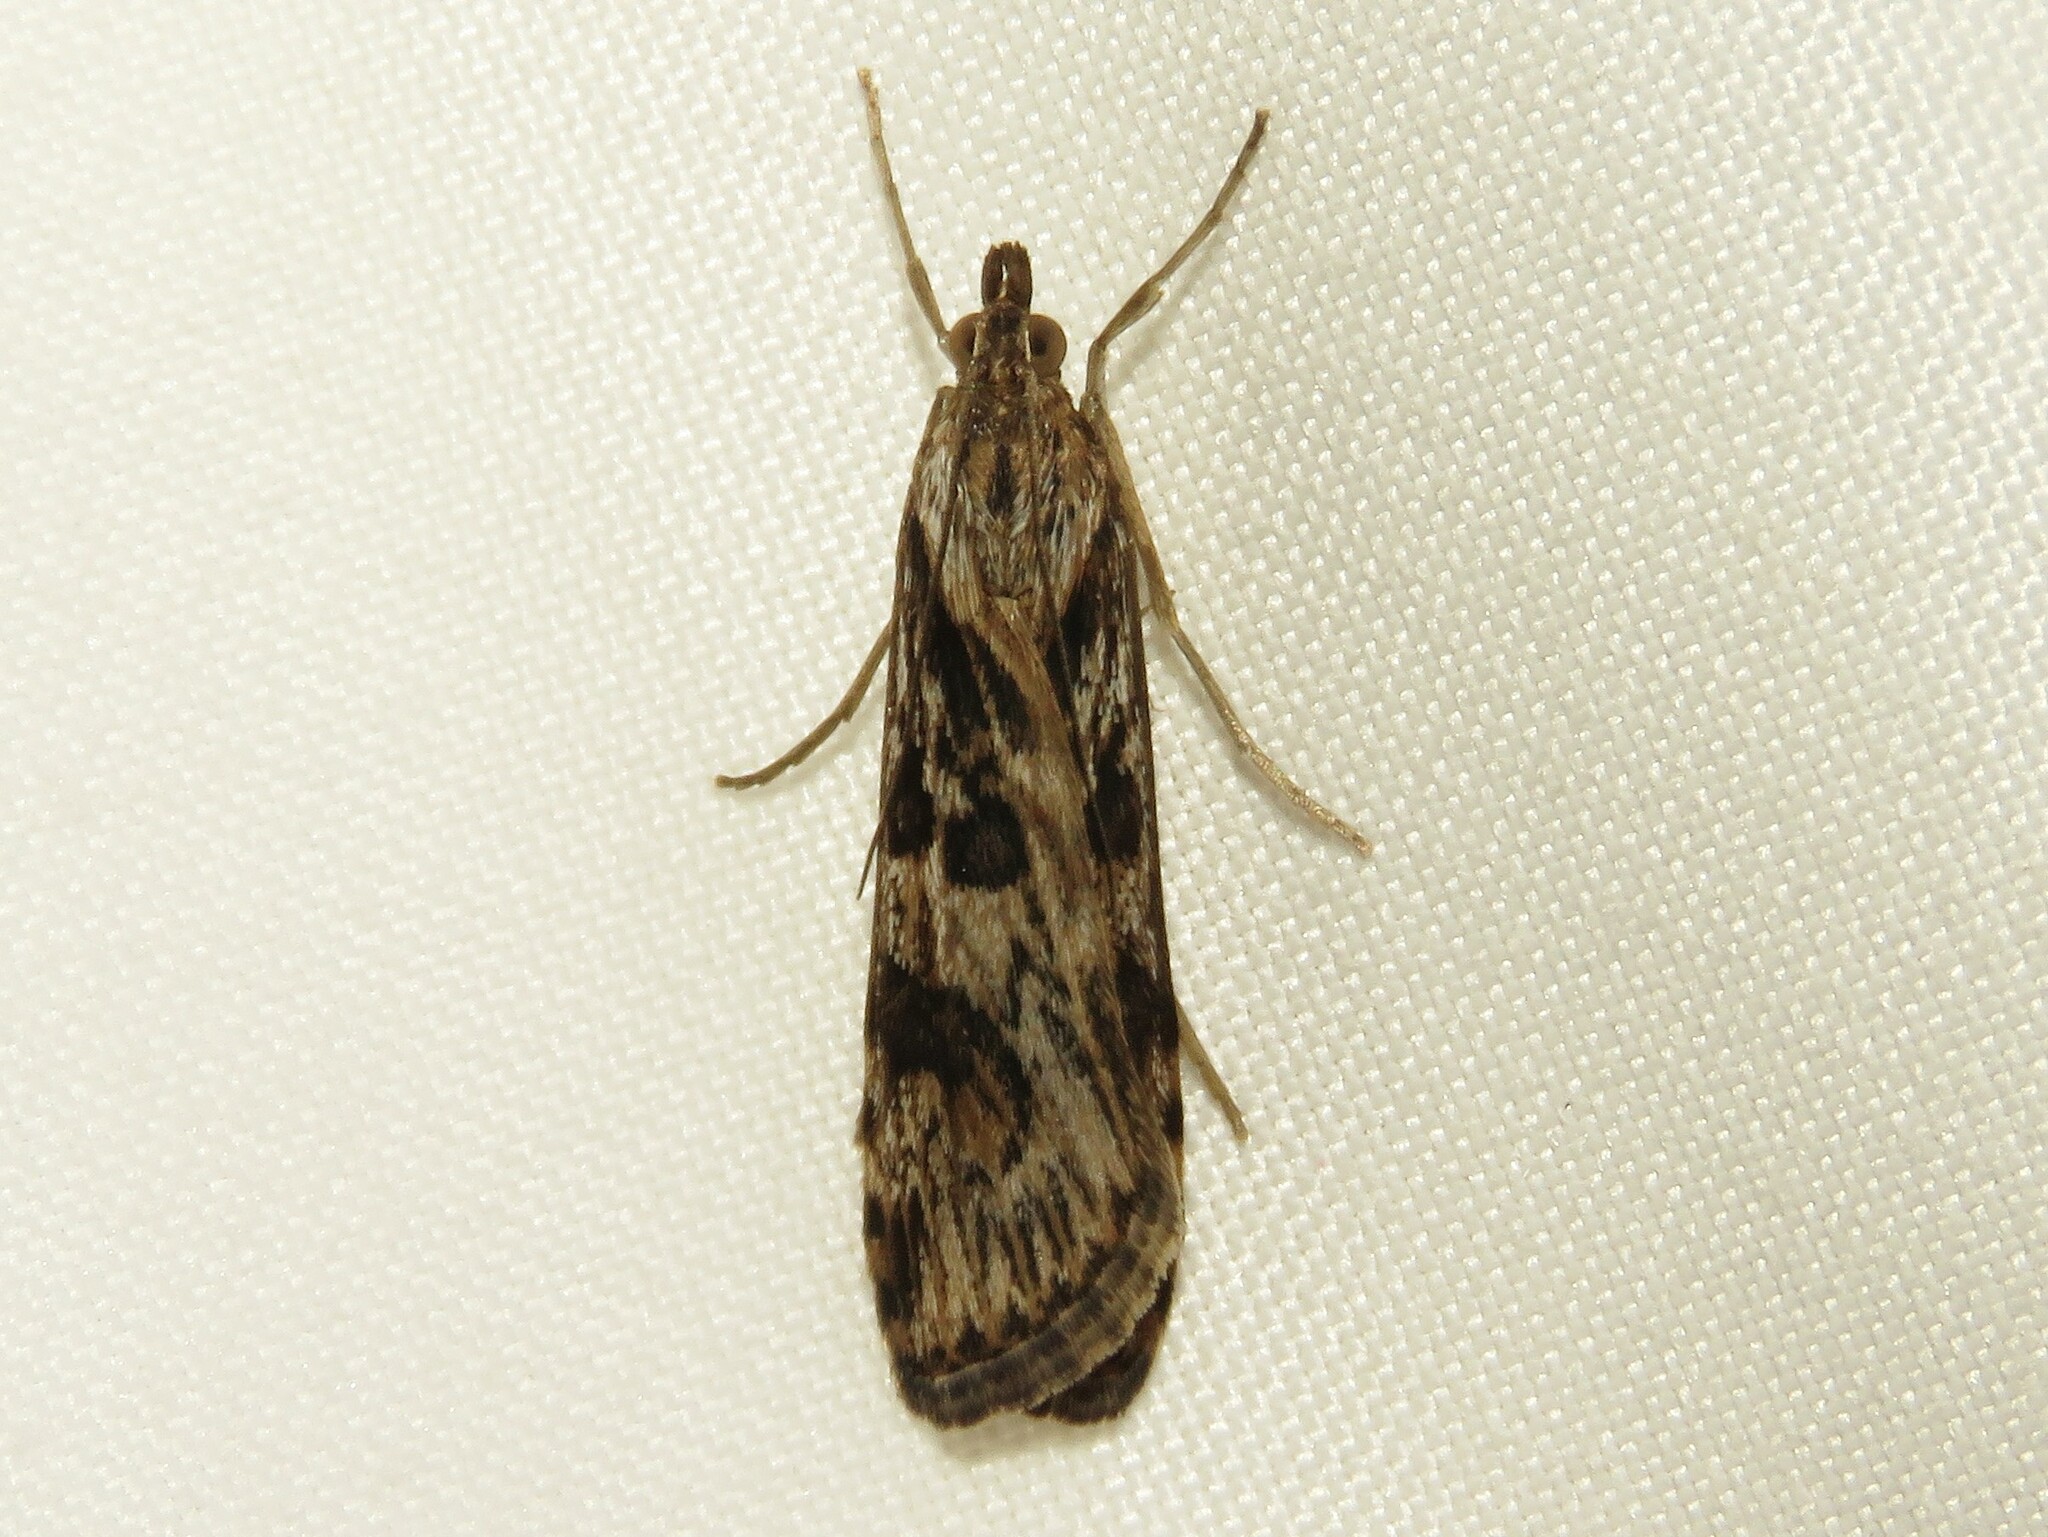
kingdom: Animalia
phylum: Arthropoda
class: Insecta
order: Lepidoptera
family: Crambidae
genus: Nomophila
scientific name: Nomophila nearctica
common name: American rush veneer
